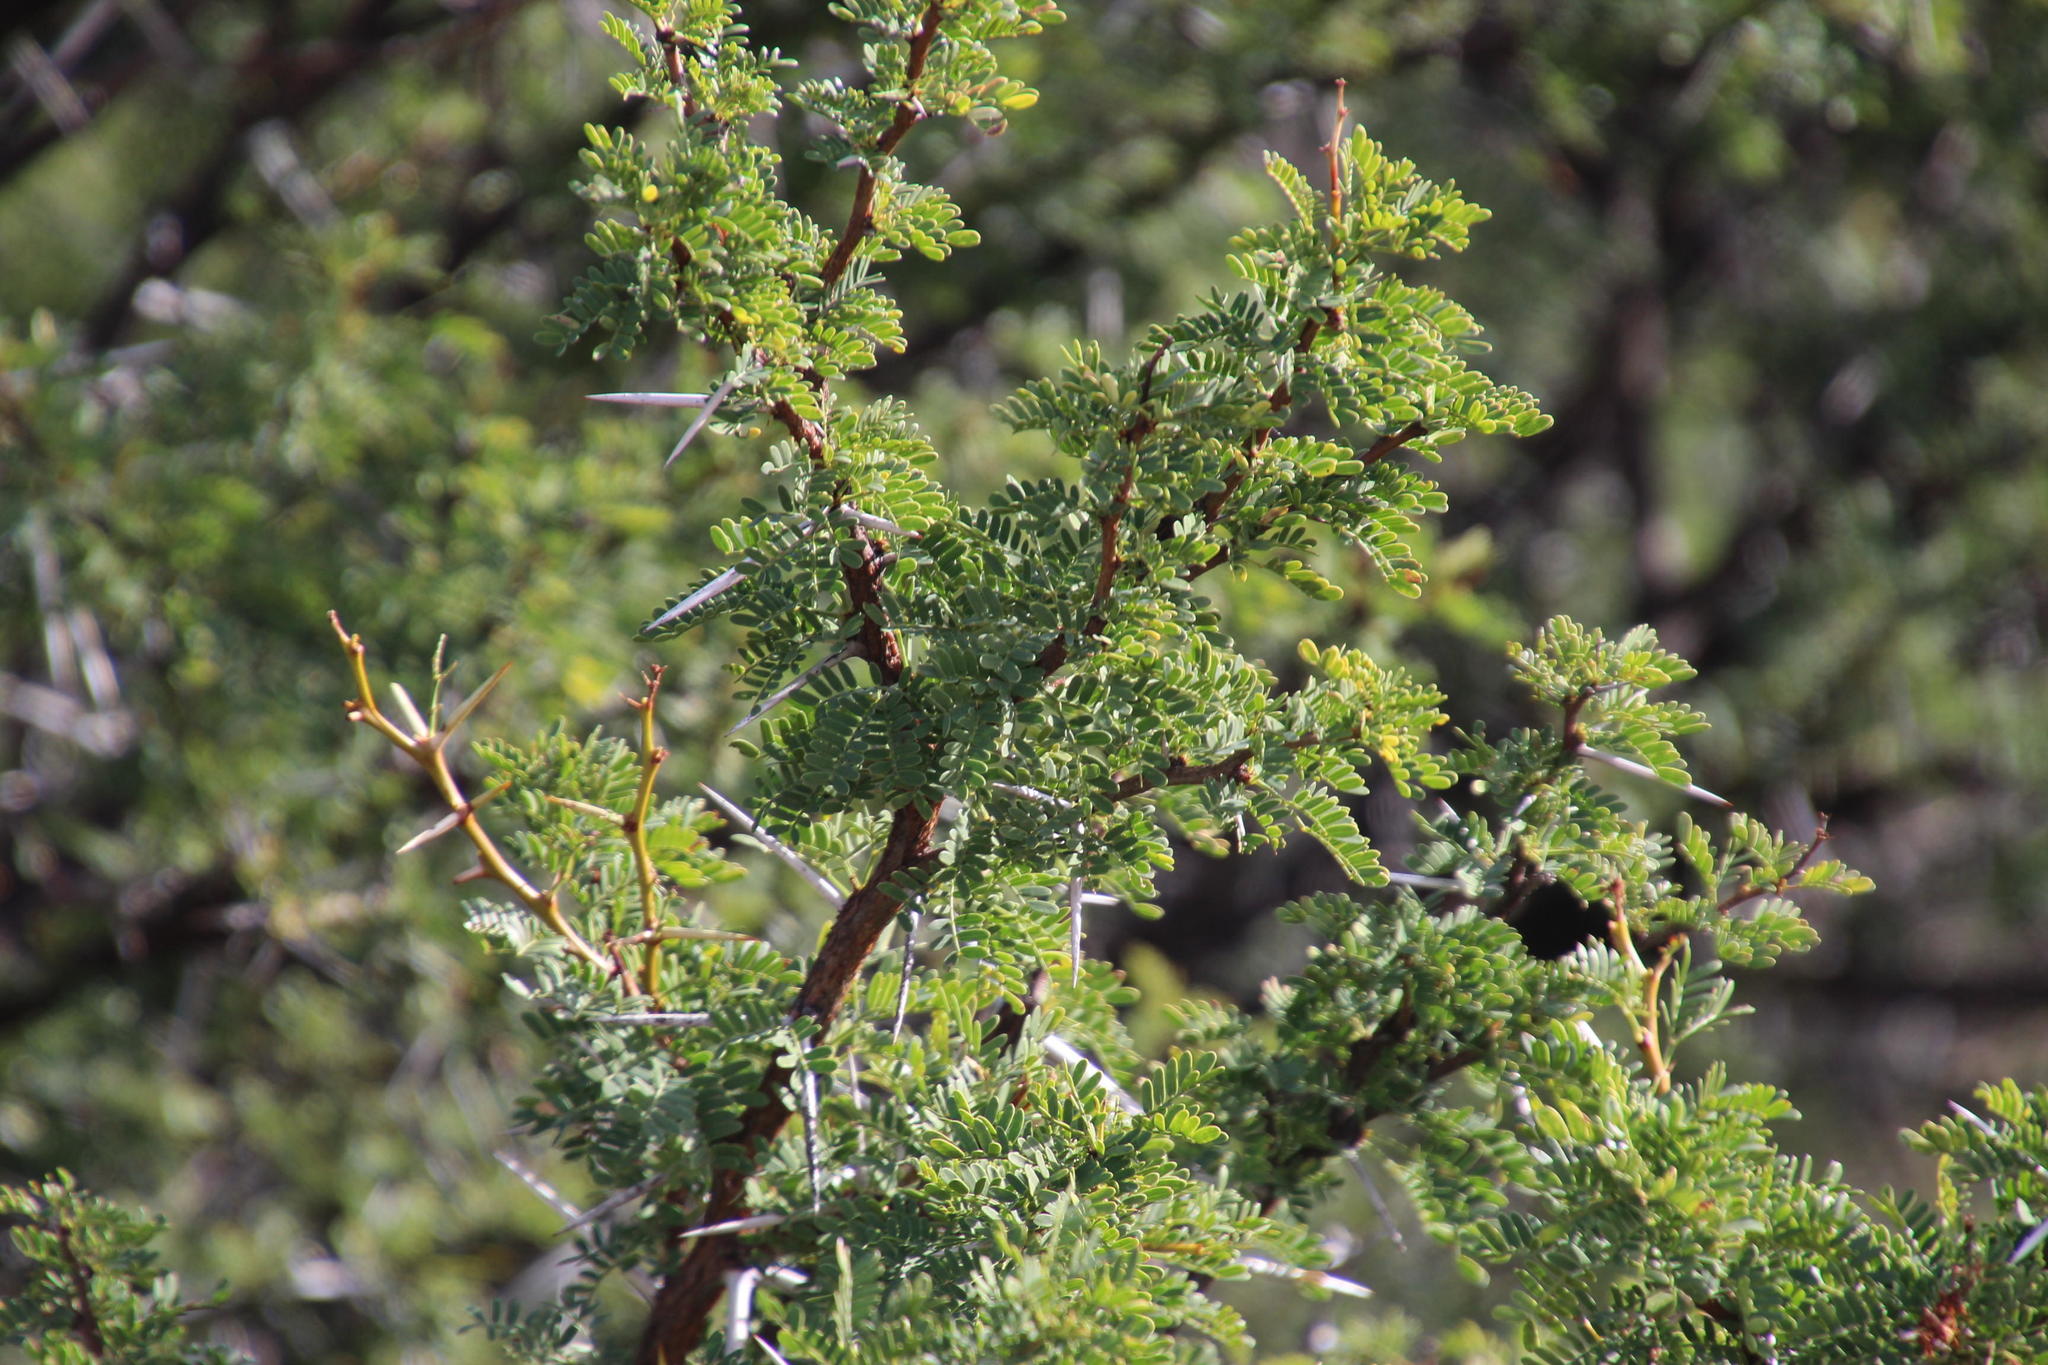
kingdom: Plantae
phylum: Tracheophyta
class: Magnoliopsida
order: Fabales
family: Fabaceae
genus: Vachellia
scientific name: Vachellia karroo
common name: Sweet thorn
